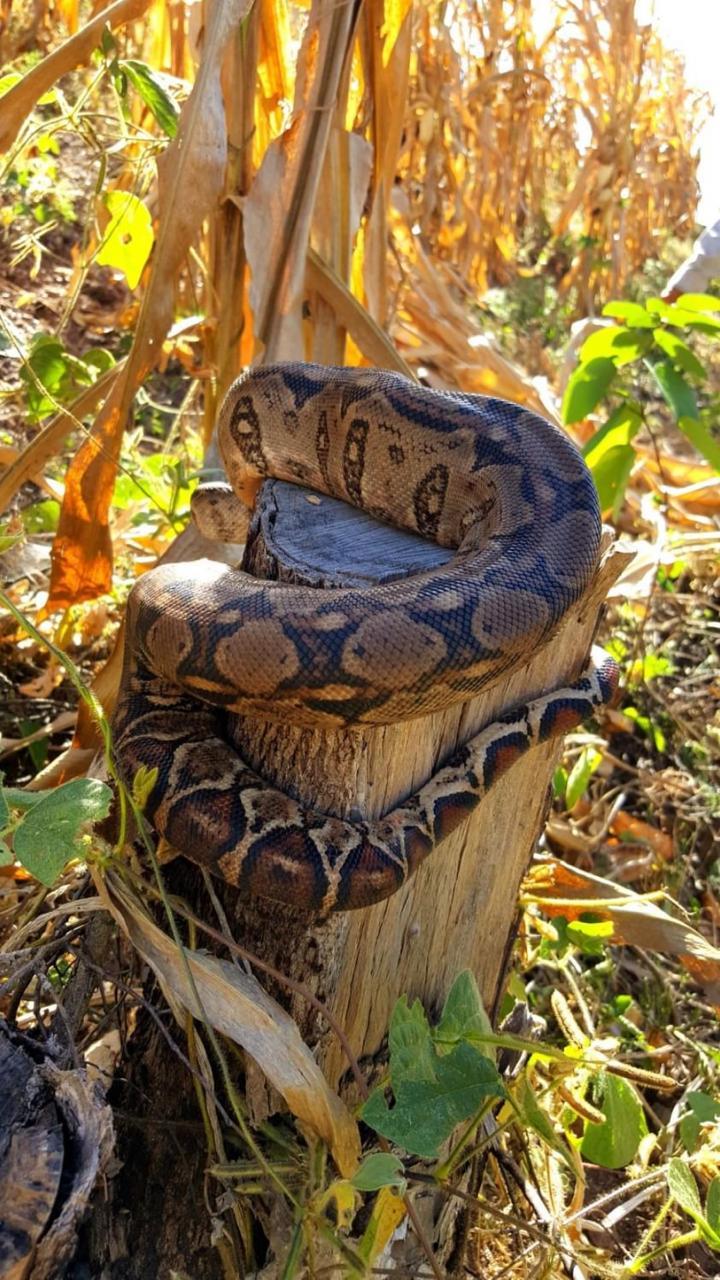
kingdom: Animalia
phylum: Chordata
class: Squamata
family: Boidae
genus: Boa
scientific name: Boa
